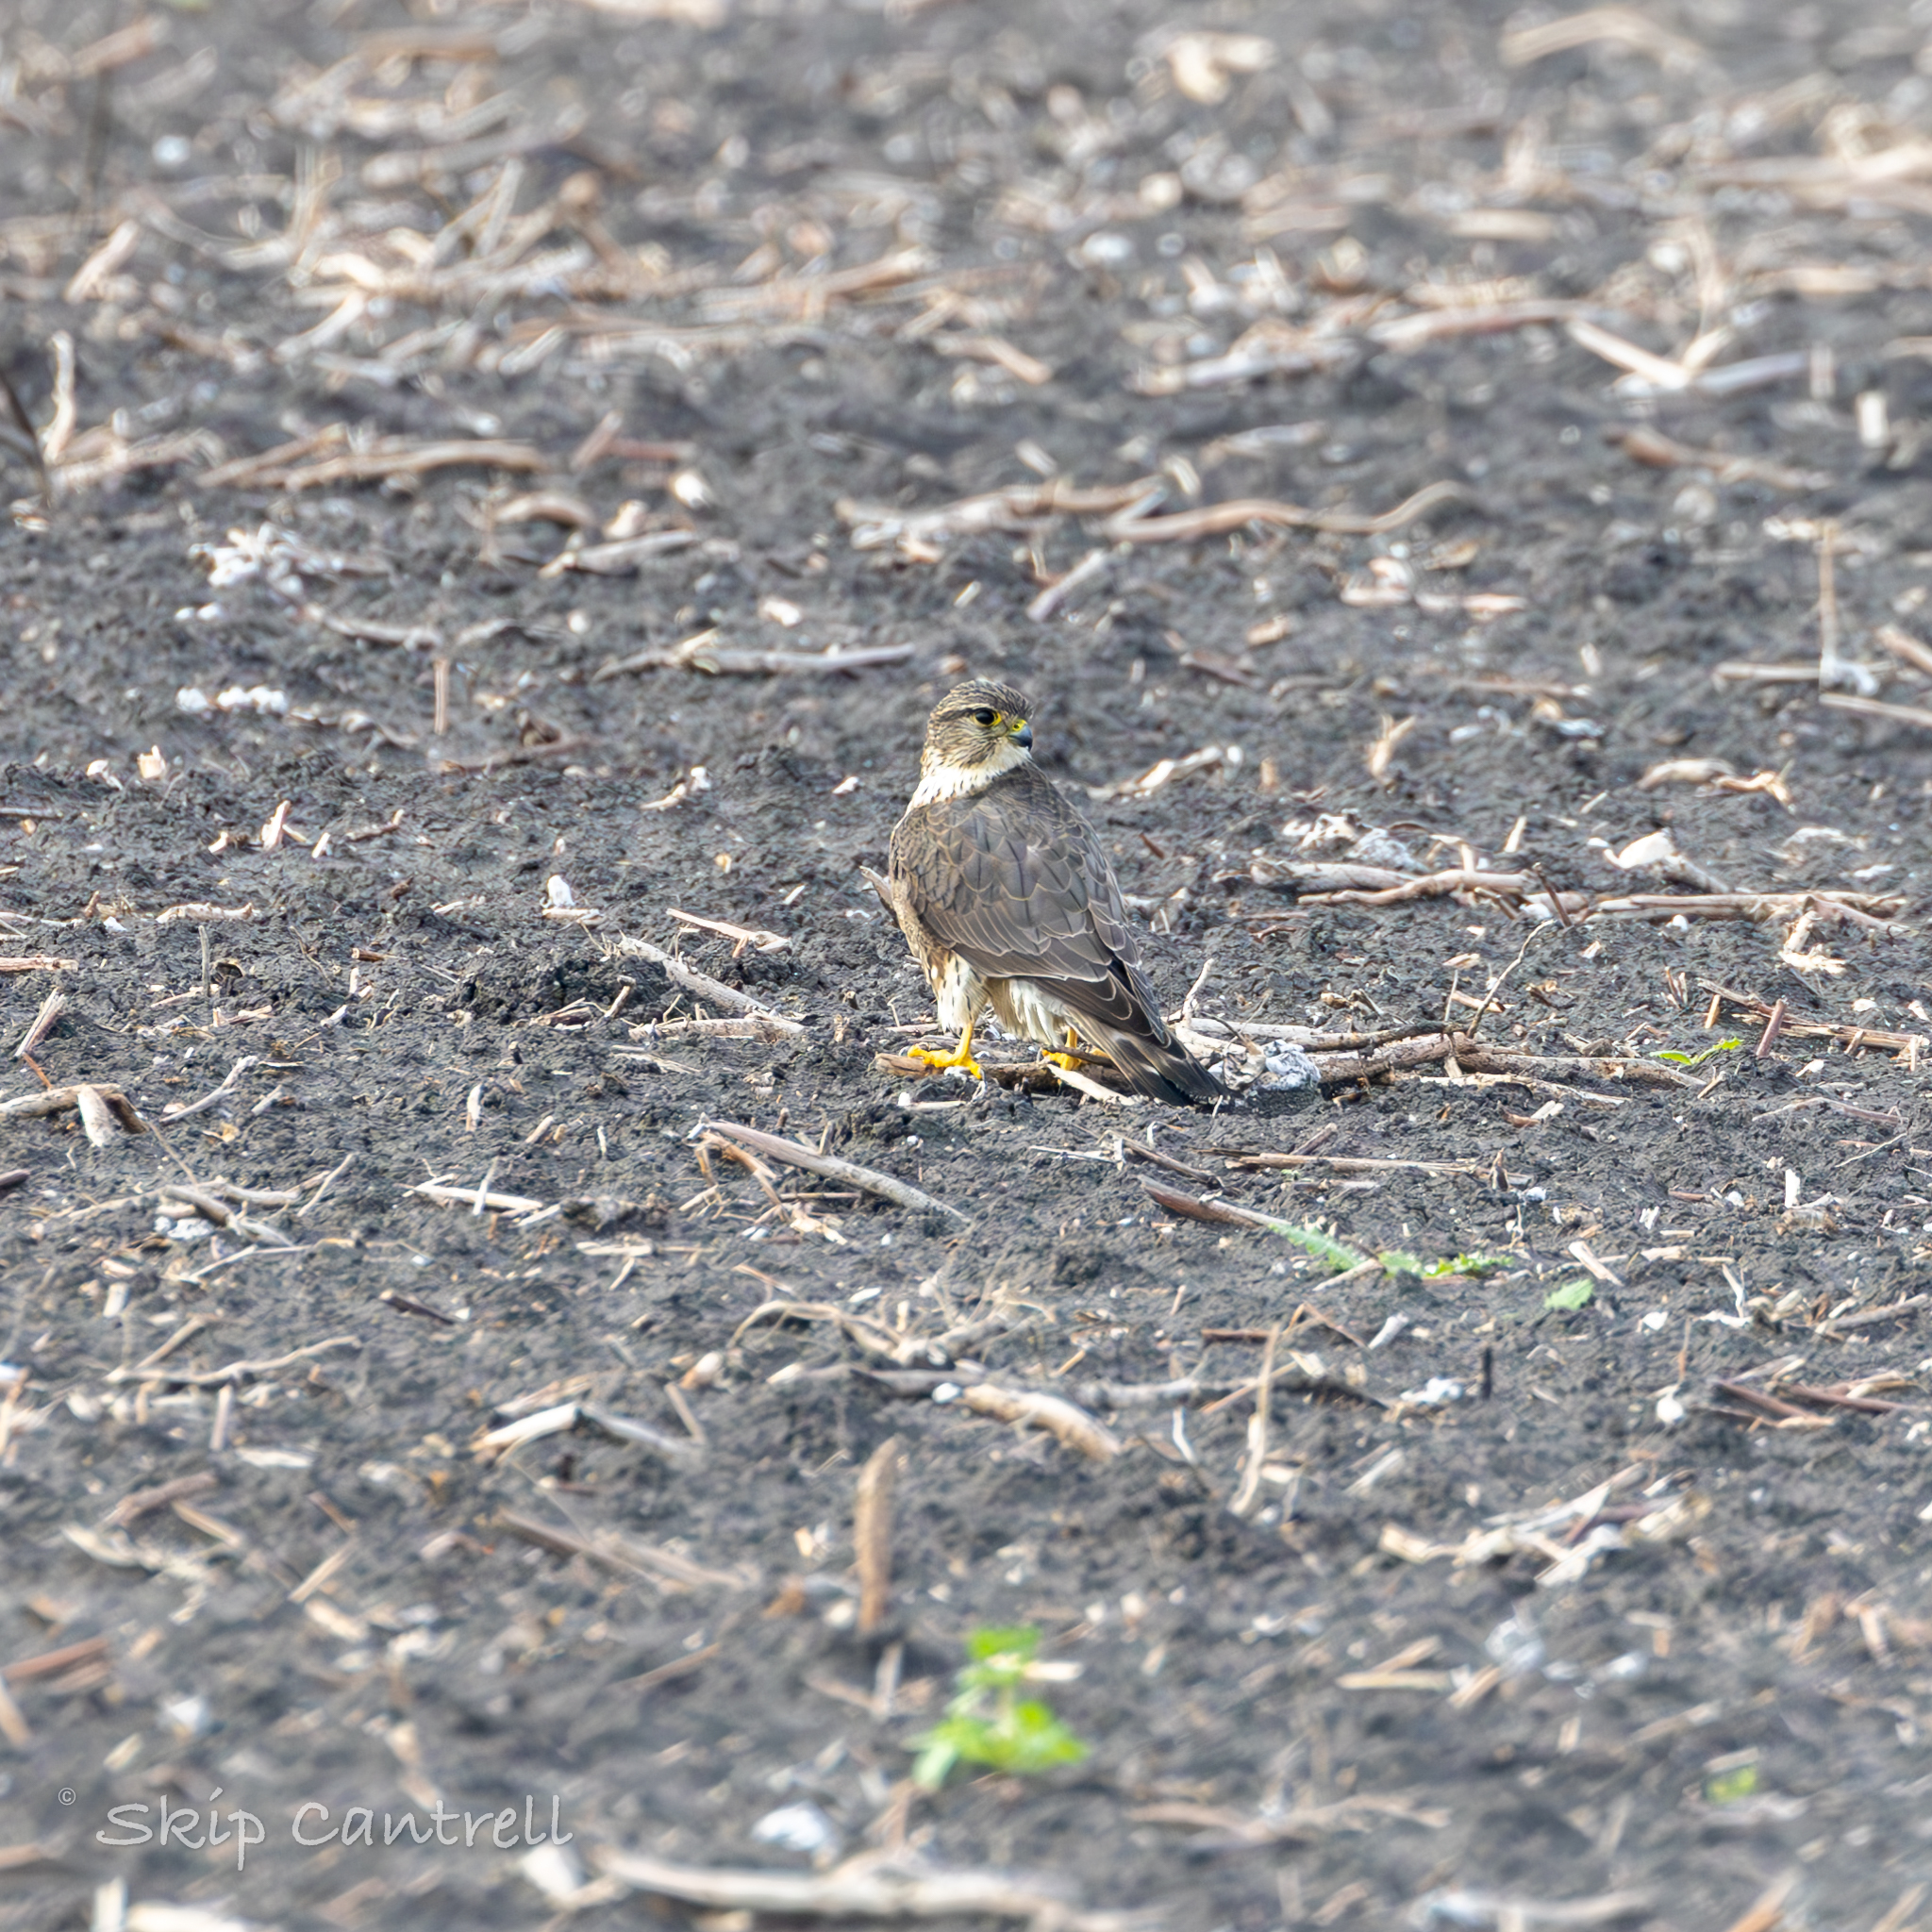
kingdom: Animalia
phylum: Chordata
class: Aves
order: Falconiformes
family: Falconidae
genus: Falco
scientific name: Falco columbarius
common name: Merlin
